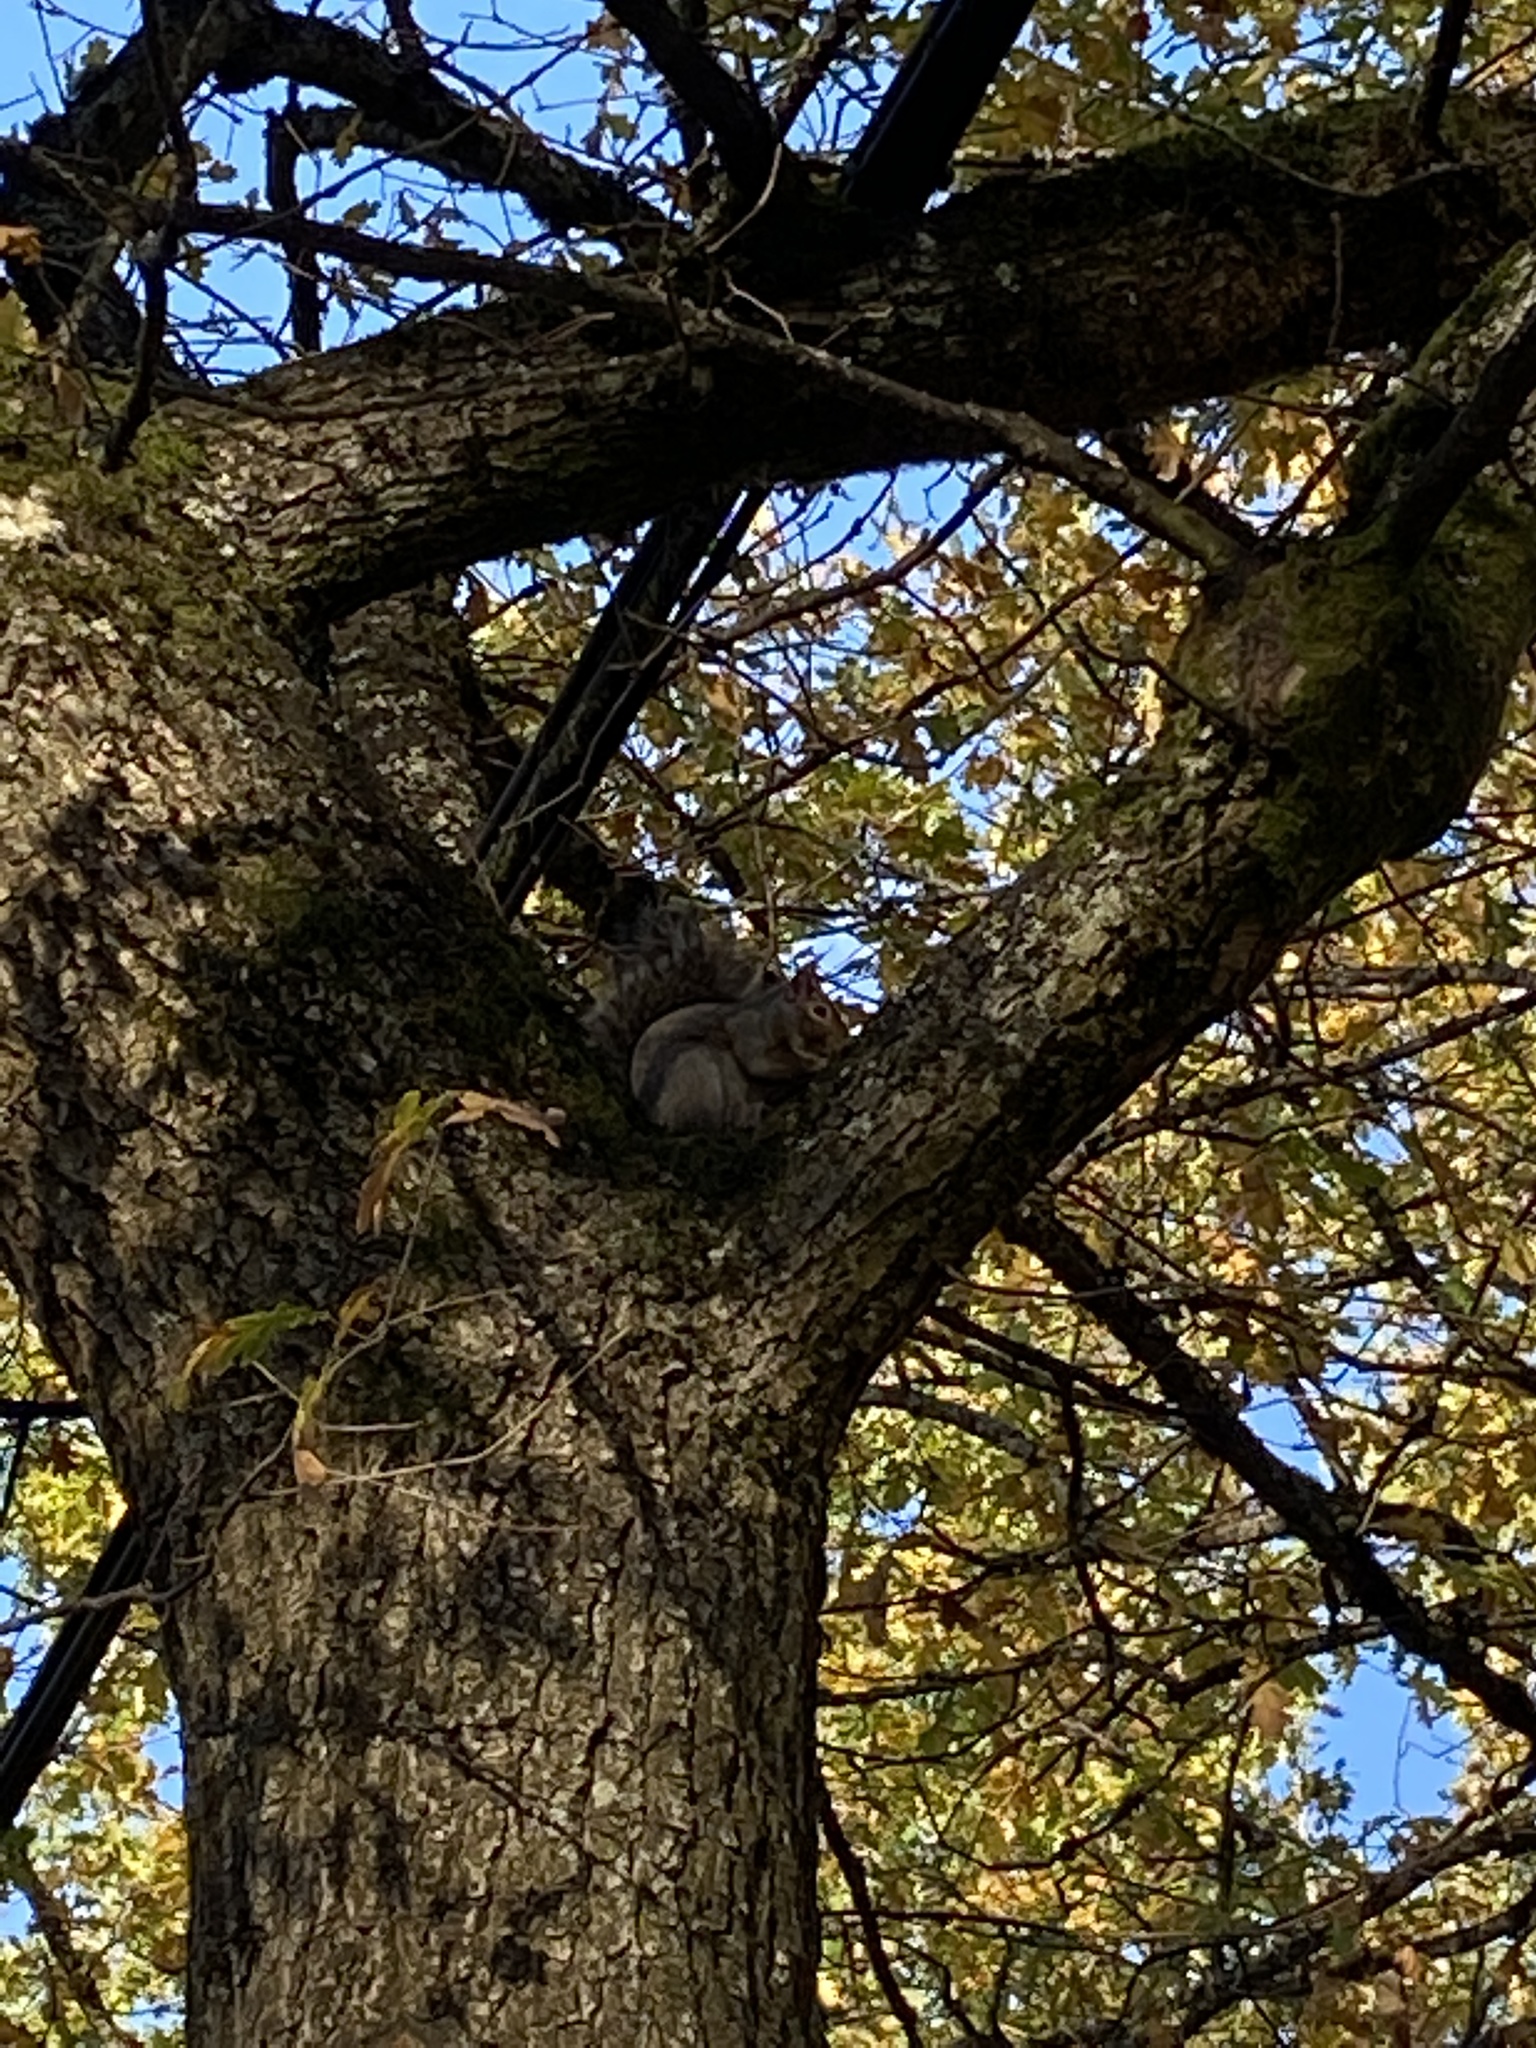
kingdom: Animalia
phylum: Chordata
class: Mammalia
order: Rodentia
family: Sciuridae
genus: Sciurus
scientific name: Sciurus carolinensis
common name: Eastern gray squirrel
